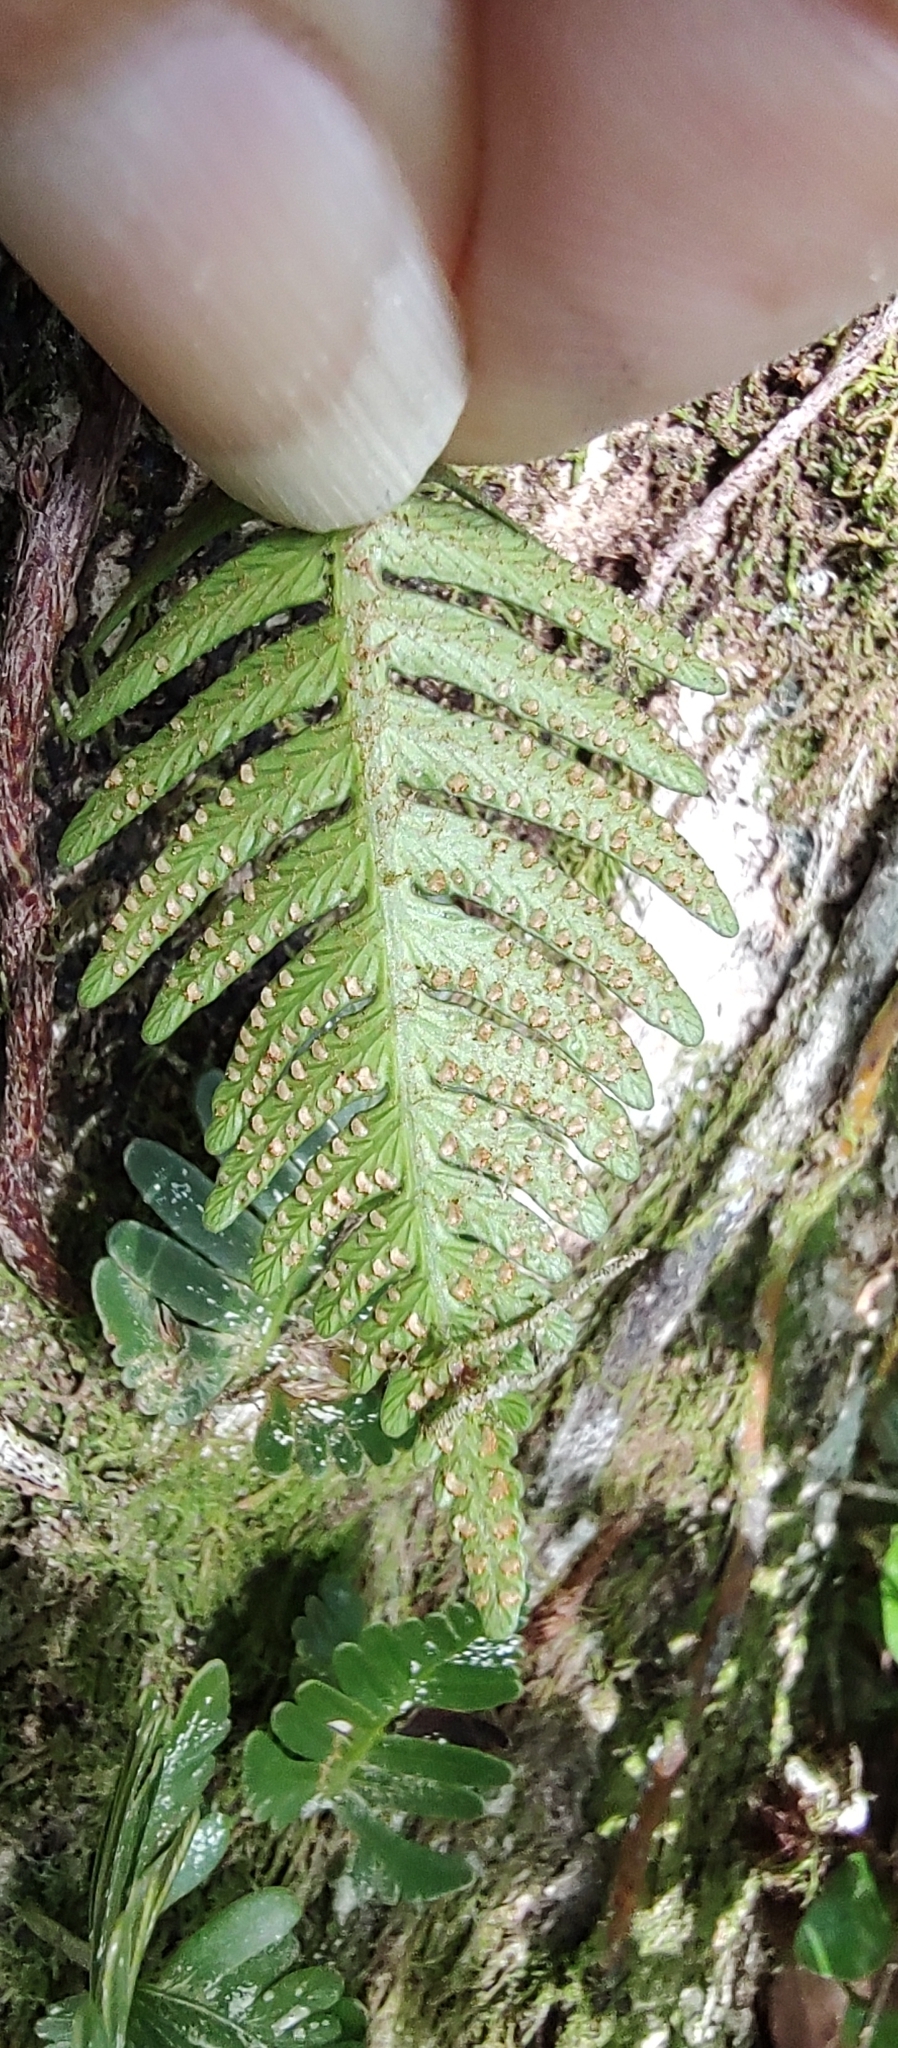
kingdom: Plantae
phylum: Tracheophyta
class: Polypodiopsida
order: Polypodiales
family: Davalliaceae
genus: Davallia
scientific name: Davallia pectinata
